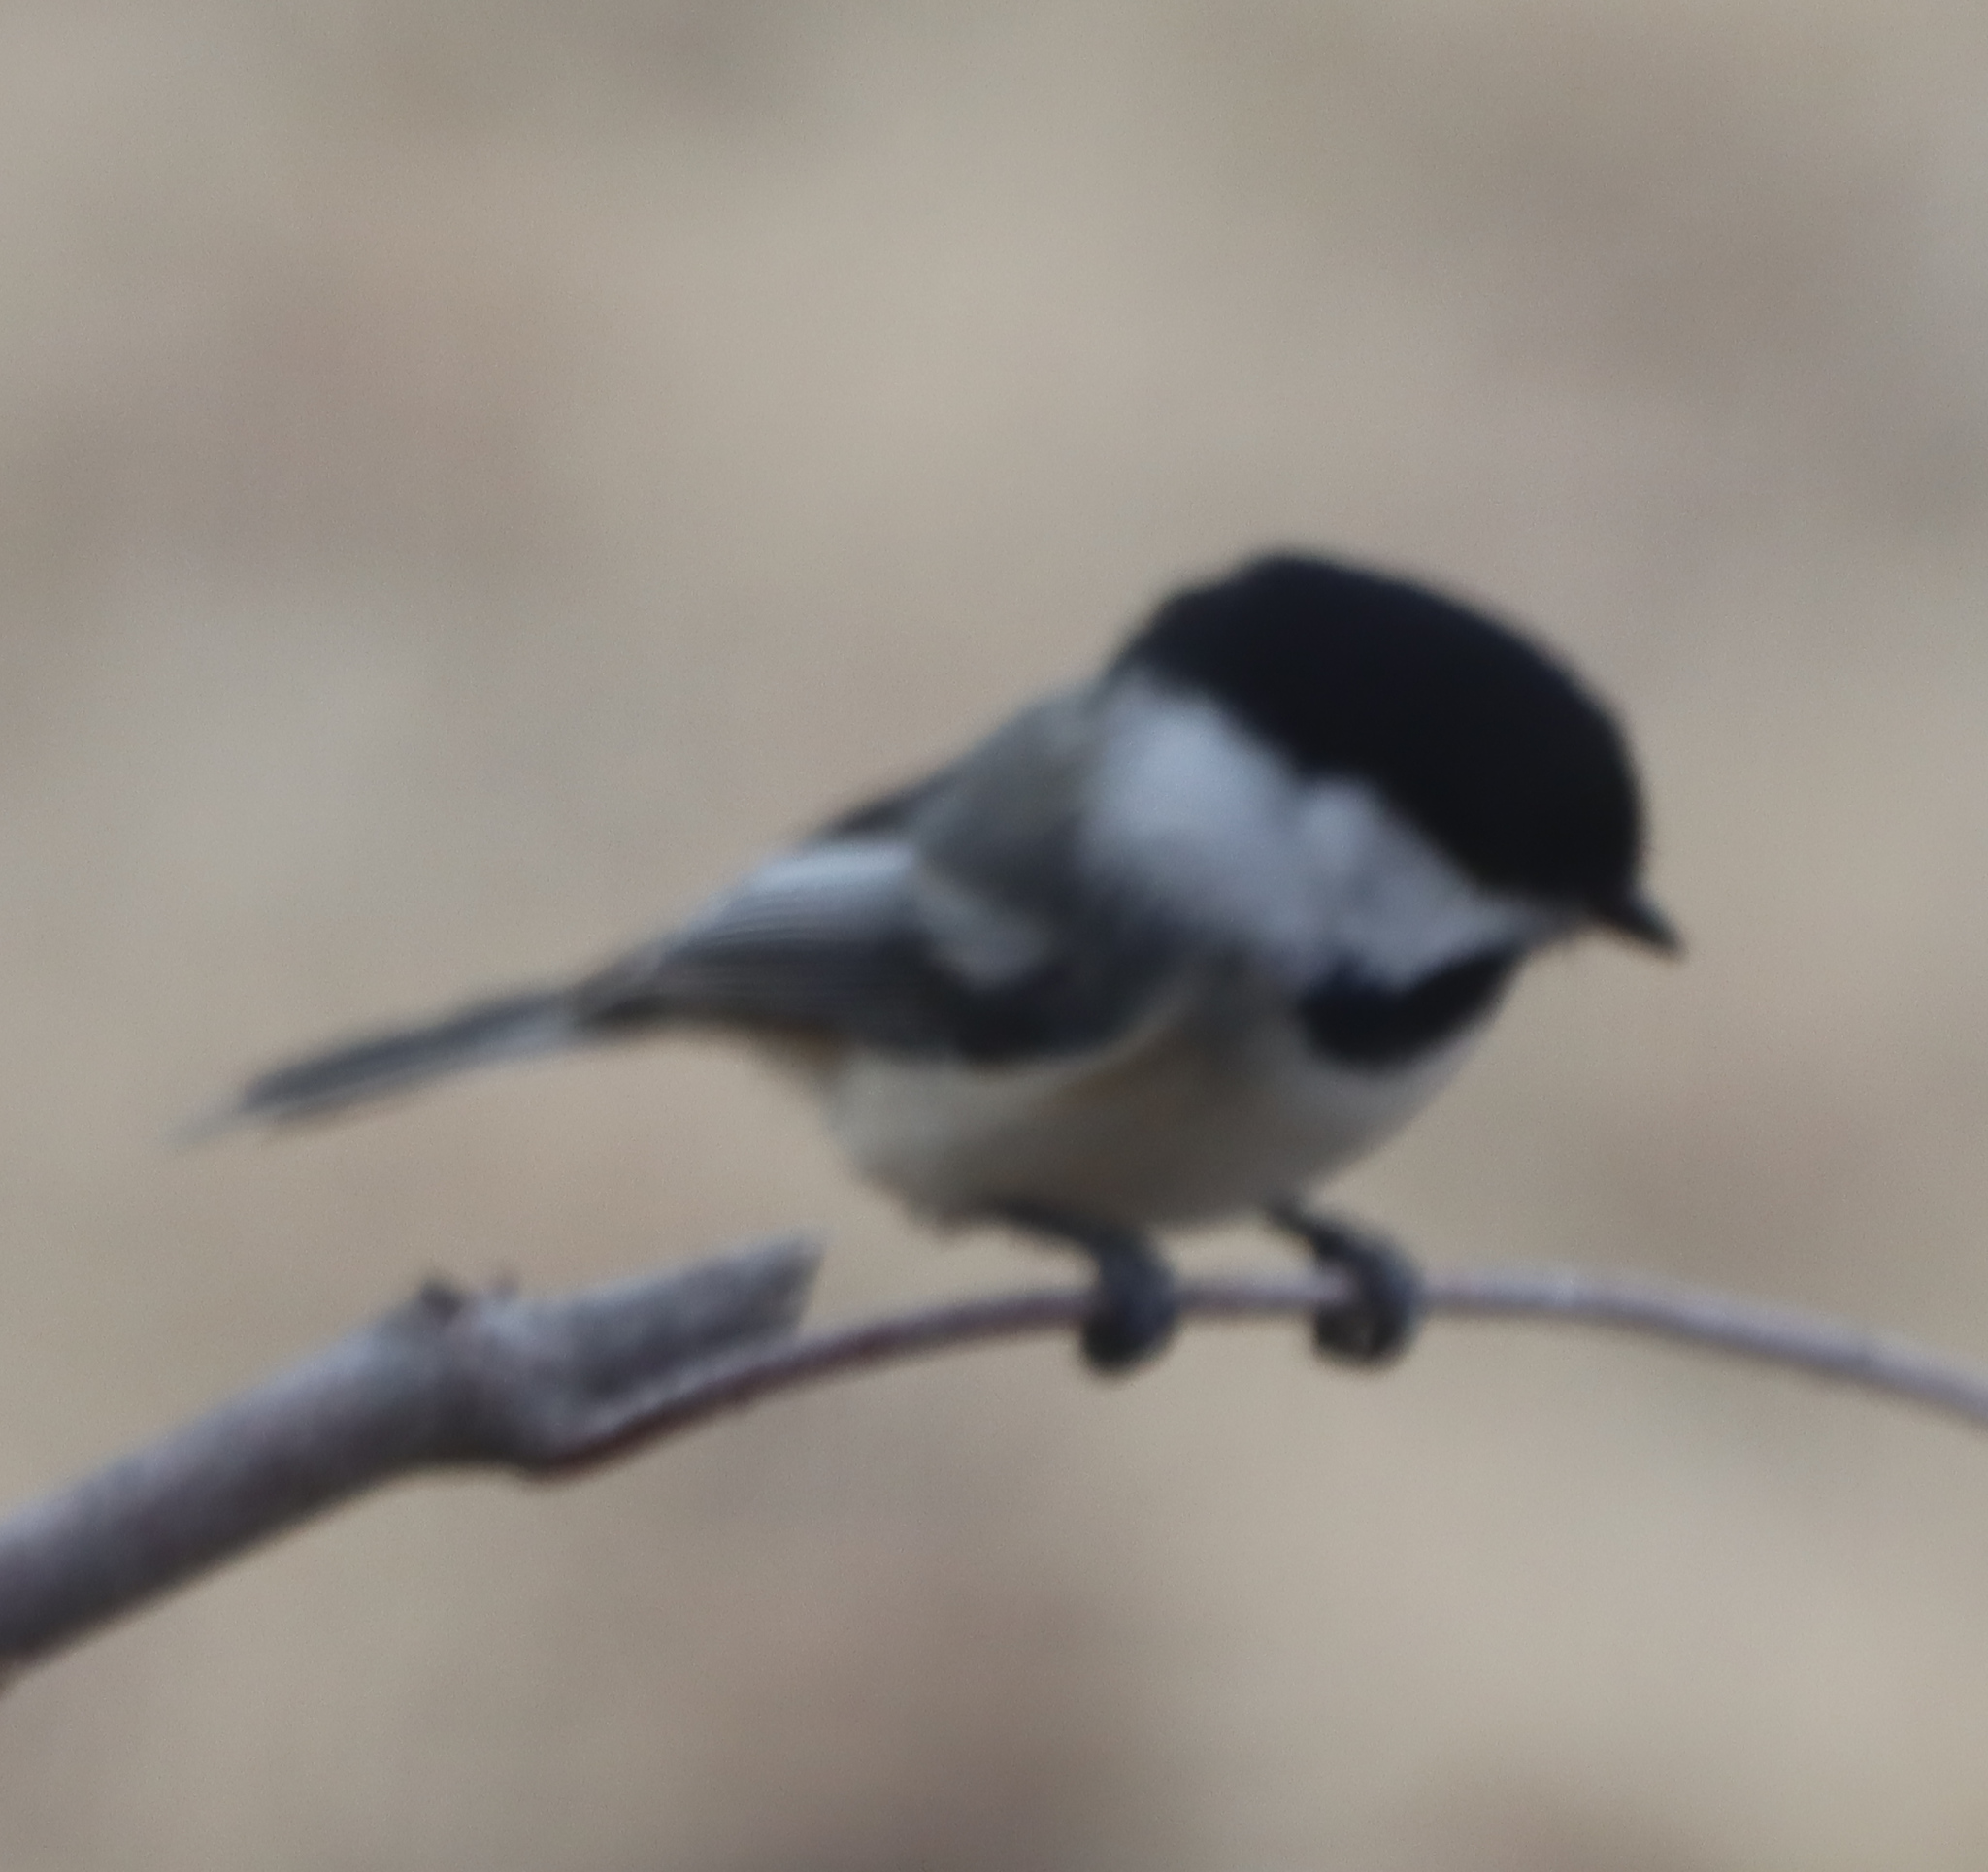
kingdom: Animalia
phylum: Chordata
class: Aves
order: Passeriformes
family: Paridae
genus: Poecile
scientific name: Poecile atricapillus
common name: Black-capped chickadee
